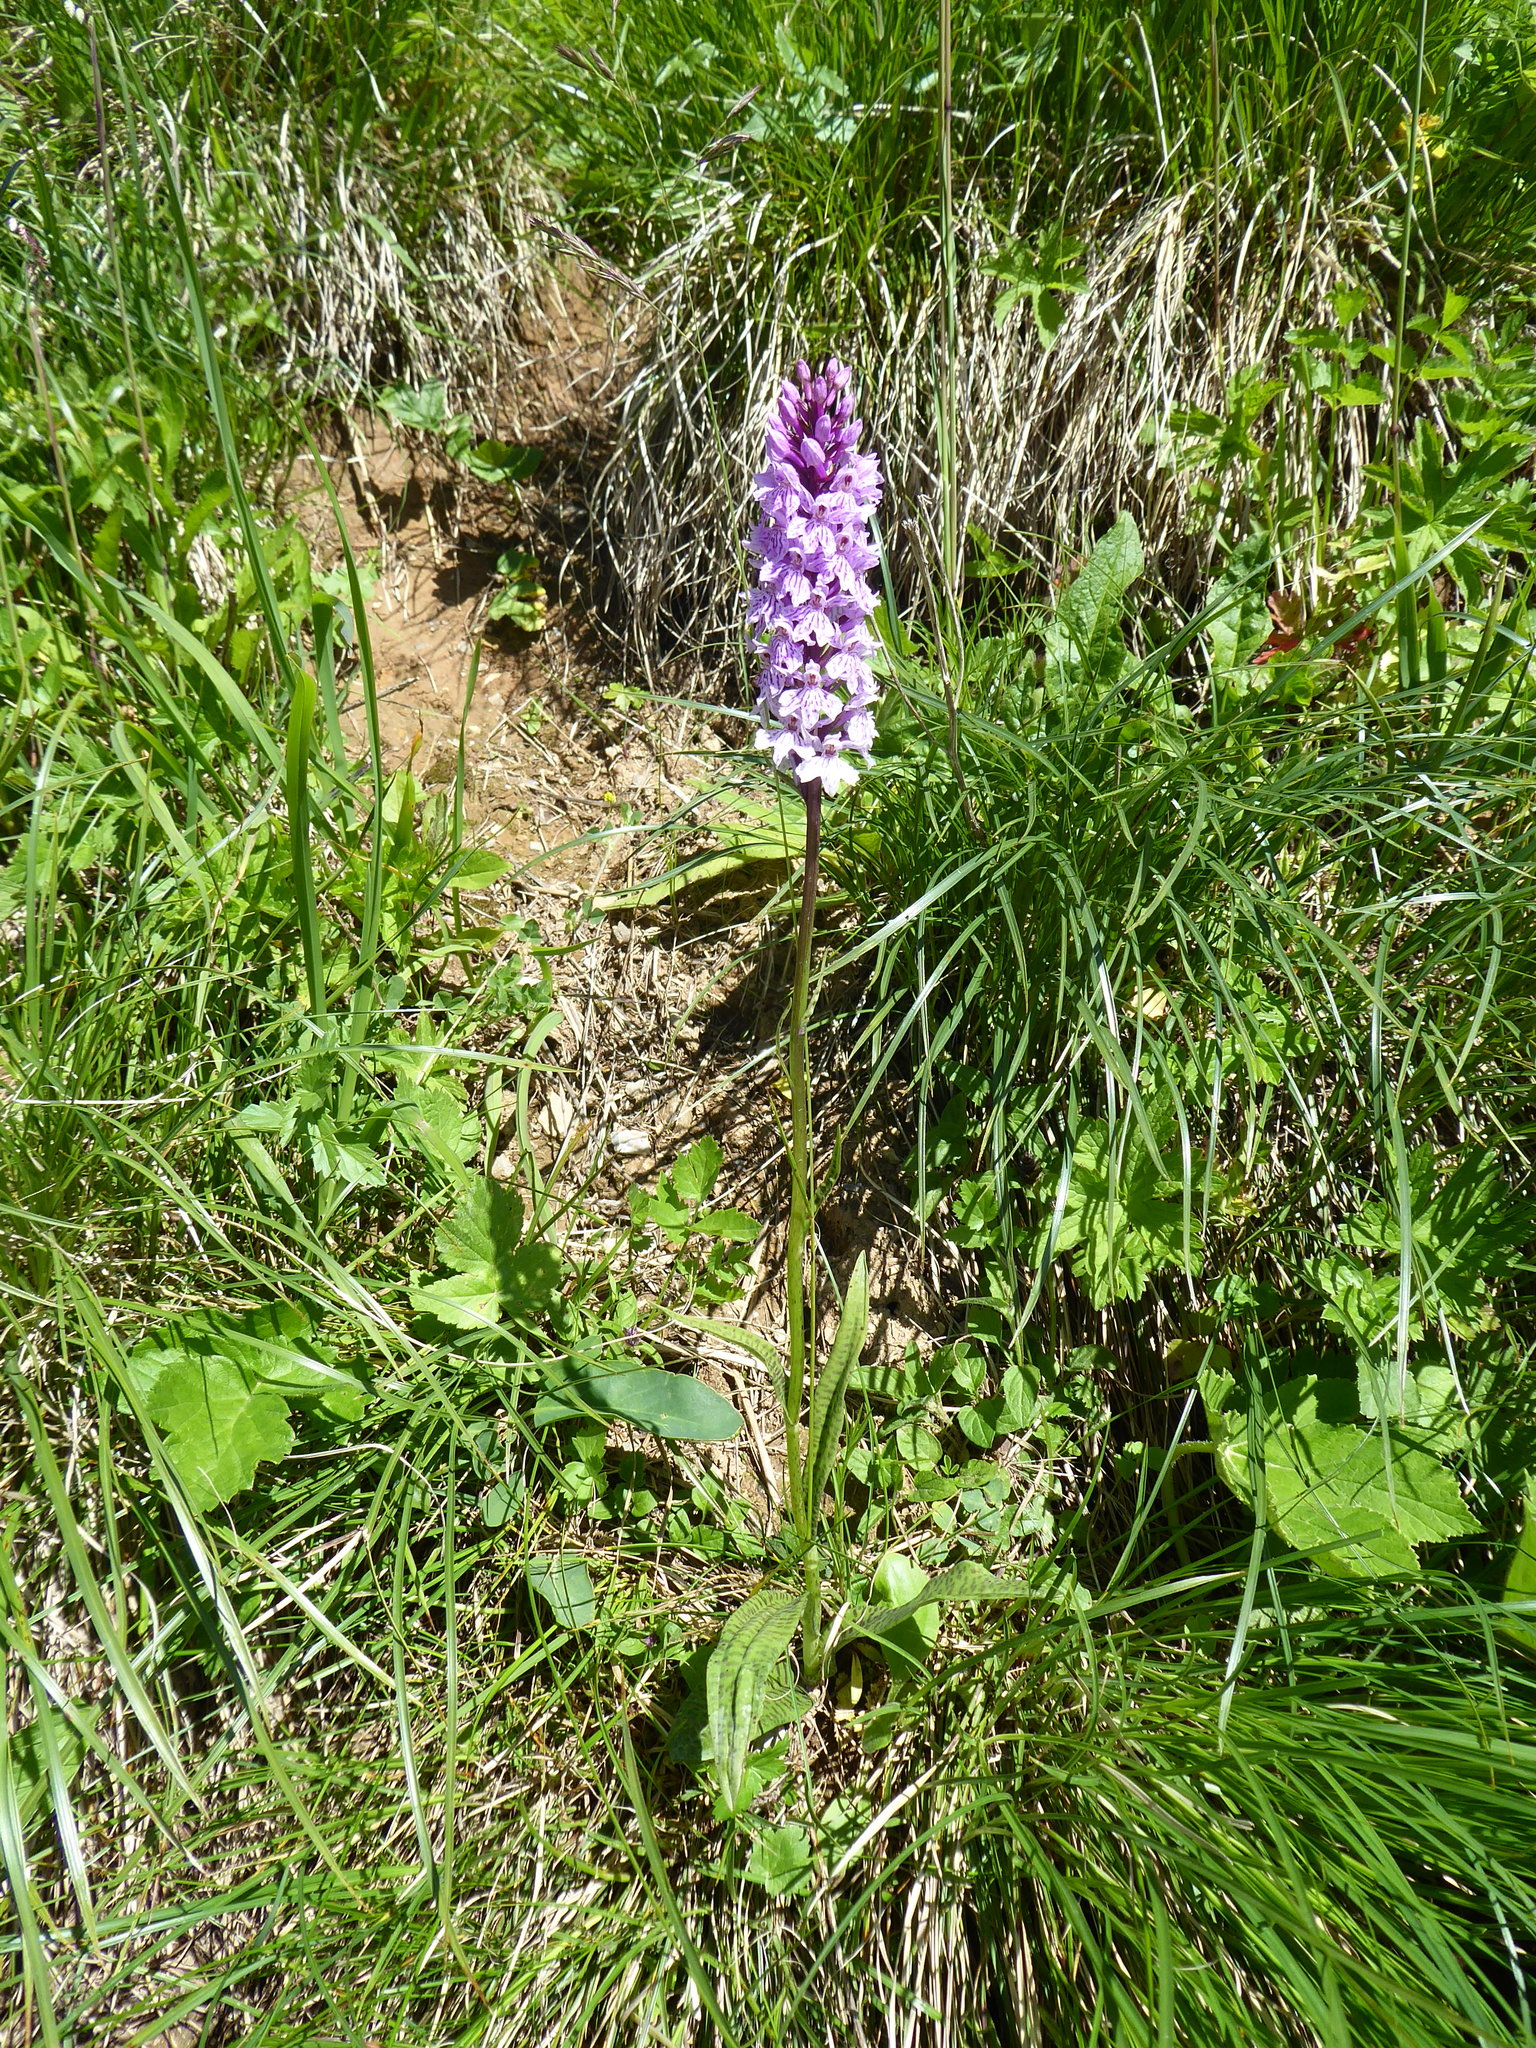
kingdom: Plantae
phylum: Tracheophyta
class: Liliopsida
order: Asparagales
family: Orchidaceae
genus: Dactylorhiza
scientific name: Dactylorhiza maculata
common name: Heath spotted-orchid
